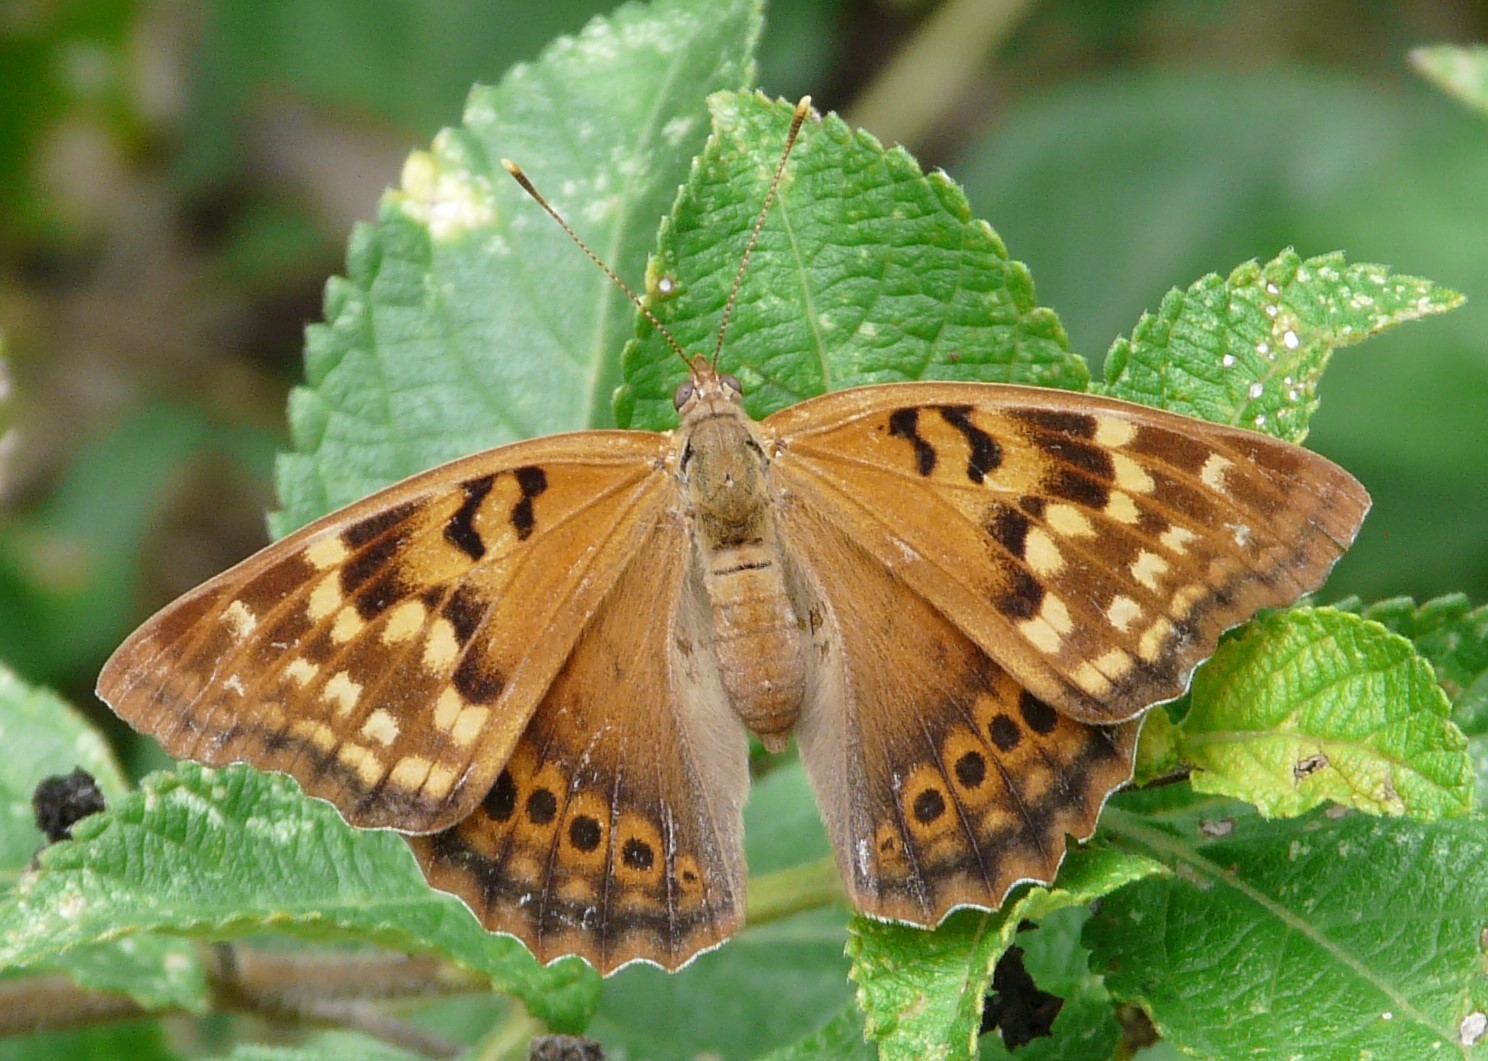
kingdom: Animalia
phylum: Arthropoda
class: Insecta
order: Lepidoptera
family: Nymphalidae
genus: Asterocampa
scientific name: Asterocampa clyton
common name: Tawny emperor
